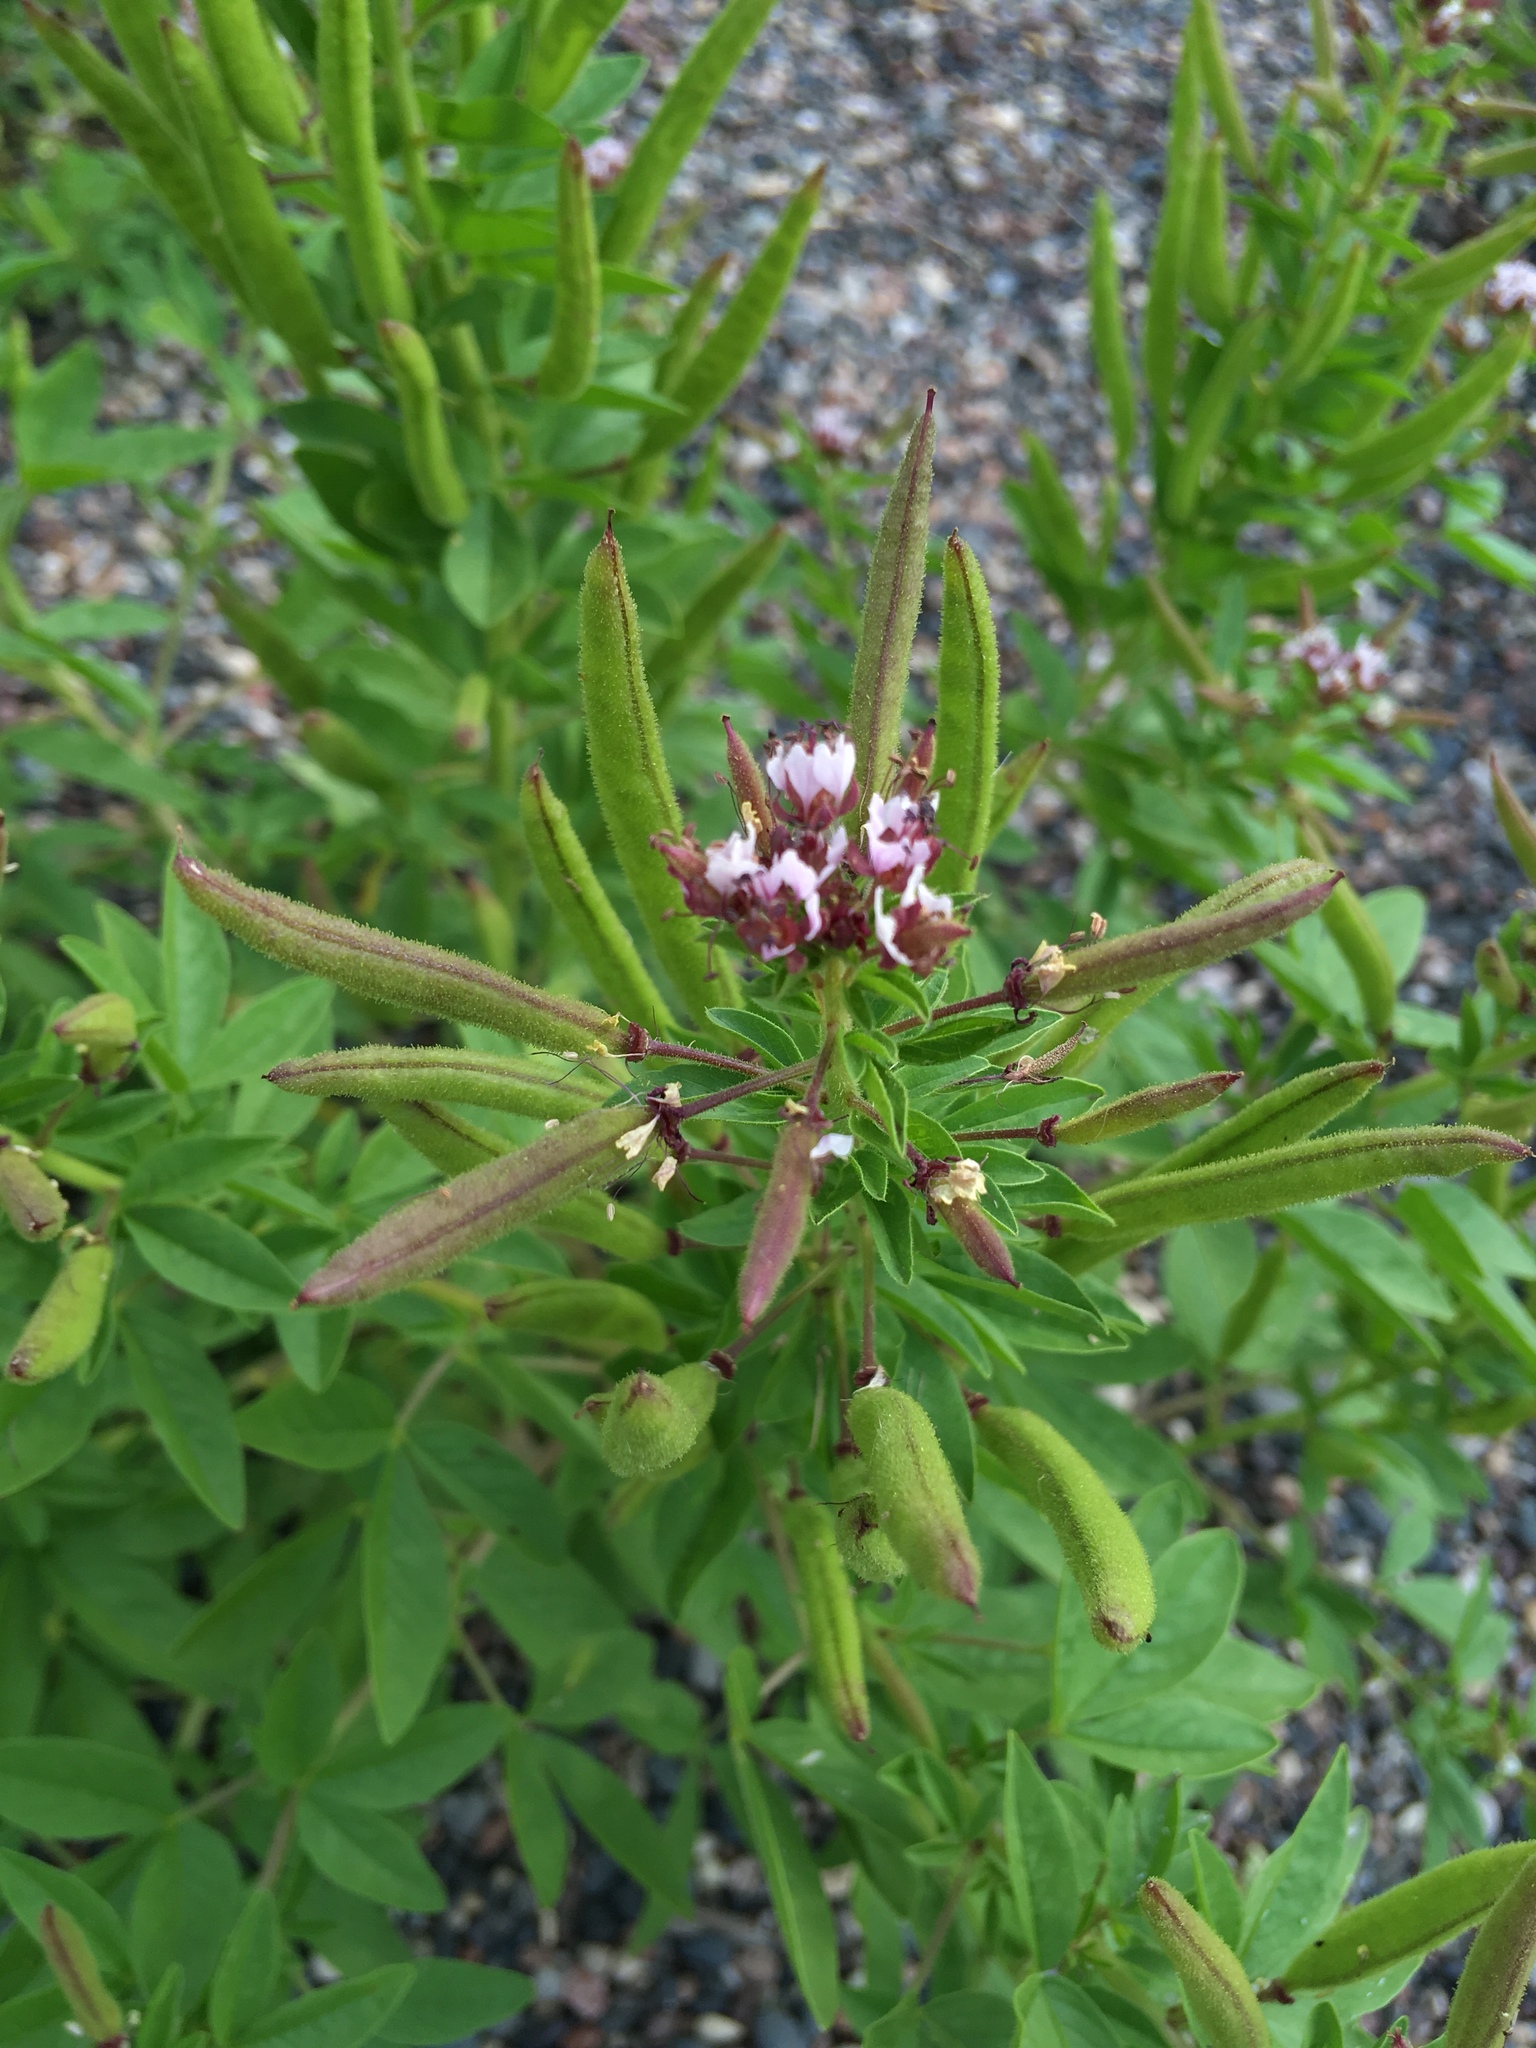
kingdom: Plantae
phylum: Tracheophyta
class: Magnoliopsida
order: Brassicales
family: Cleomaceae
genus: Polanisia
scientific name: Polanisia dodecandra
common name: Clammyweed
